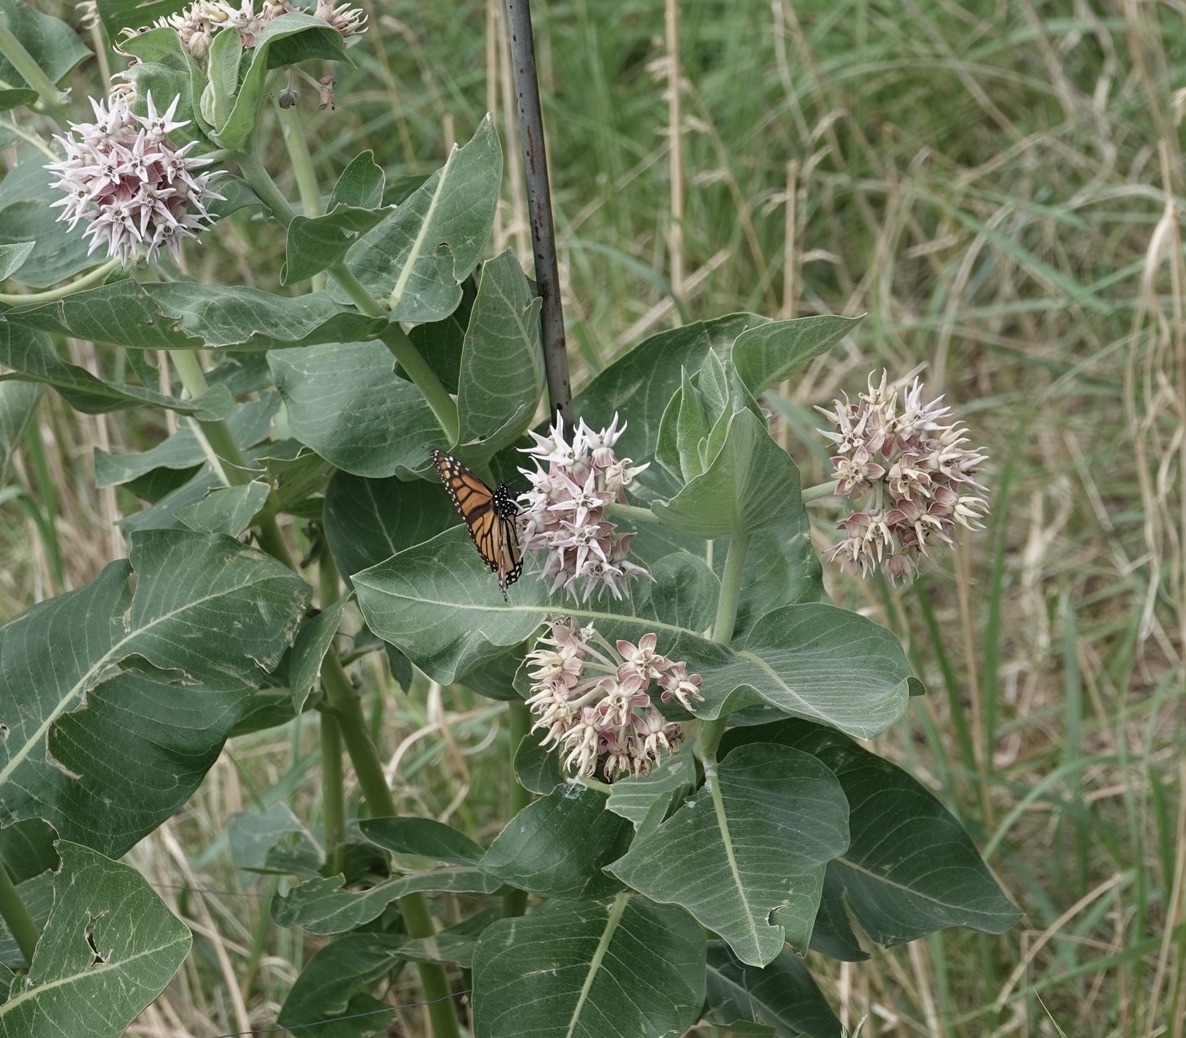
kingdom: Animalia
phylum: Arthropoda
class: Insecta
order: Lepidoptera
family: Nymphalidae
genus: Danaus
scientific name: Danaus plexippus
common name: Monarch
